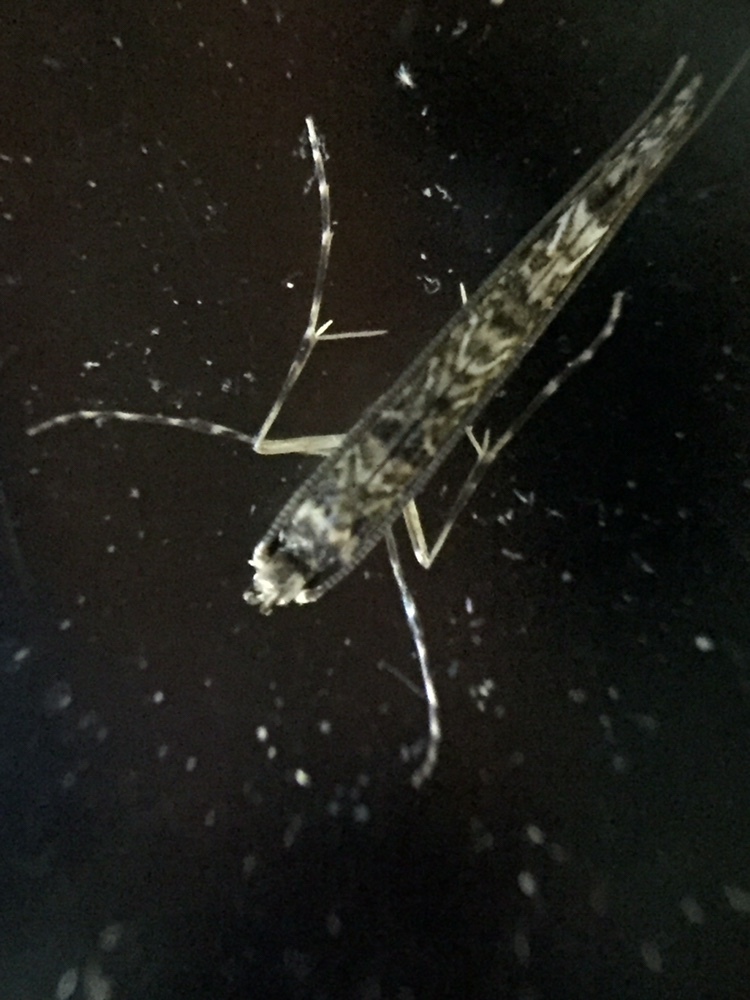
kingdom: Animalia
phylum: Arthropoda
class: Insecta
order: Lepidoptera
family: Gracillariidae
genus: Conopomorpha
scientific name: Conopomorpha cyanospila
